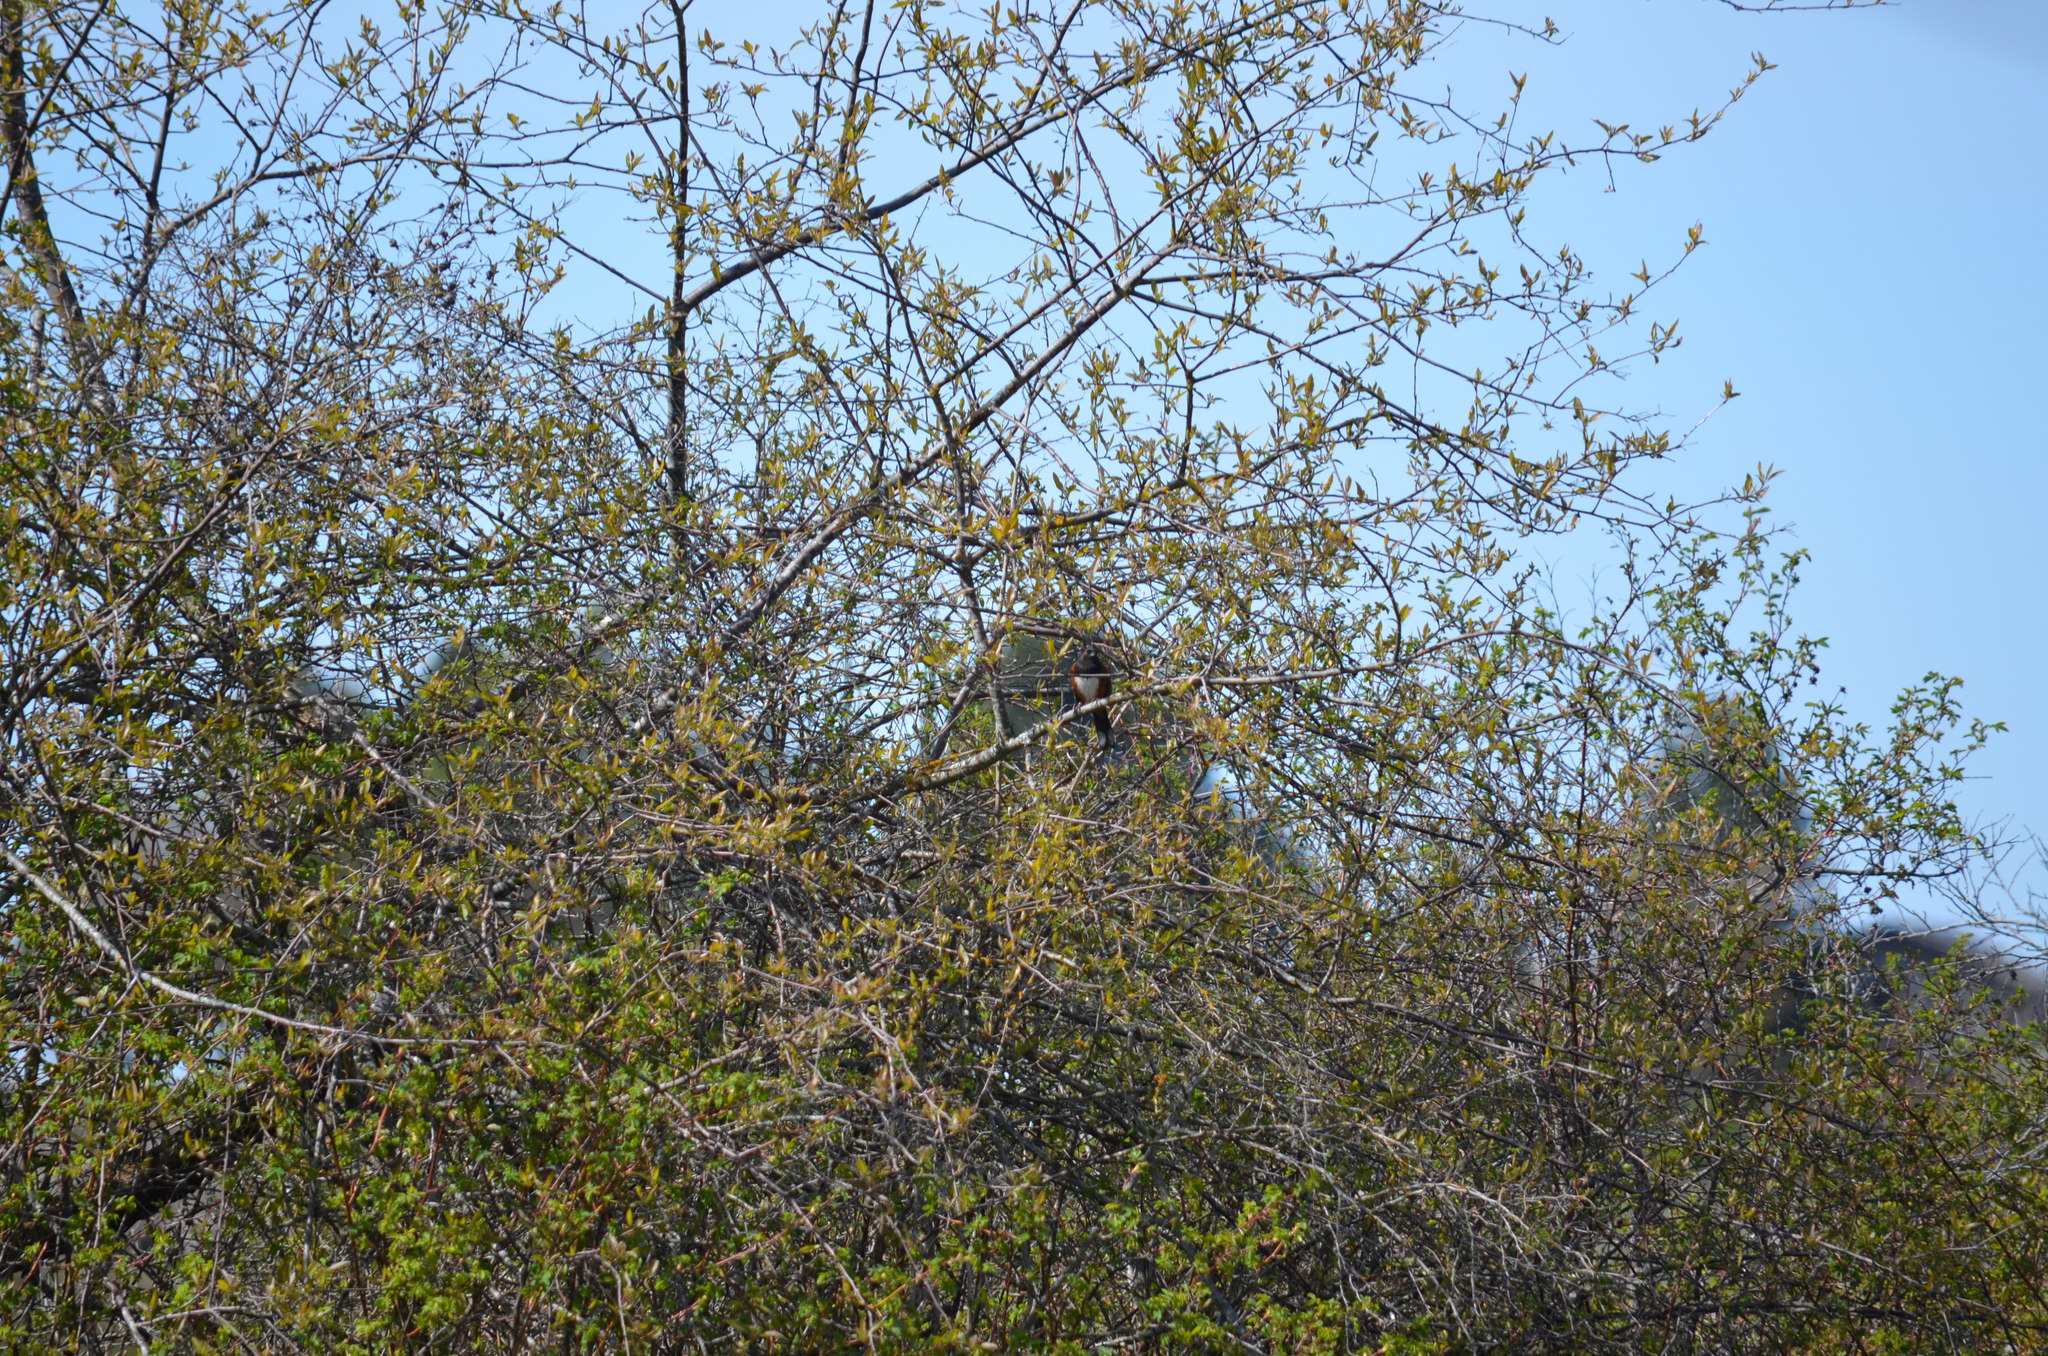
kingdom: Animalia
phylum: Chordata
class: Aves
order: Passeriformes
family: Passerellidae
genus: Pipilo
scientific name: Pipilo maculatus
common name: Spotted towhee
